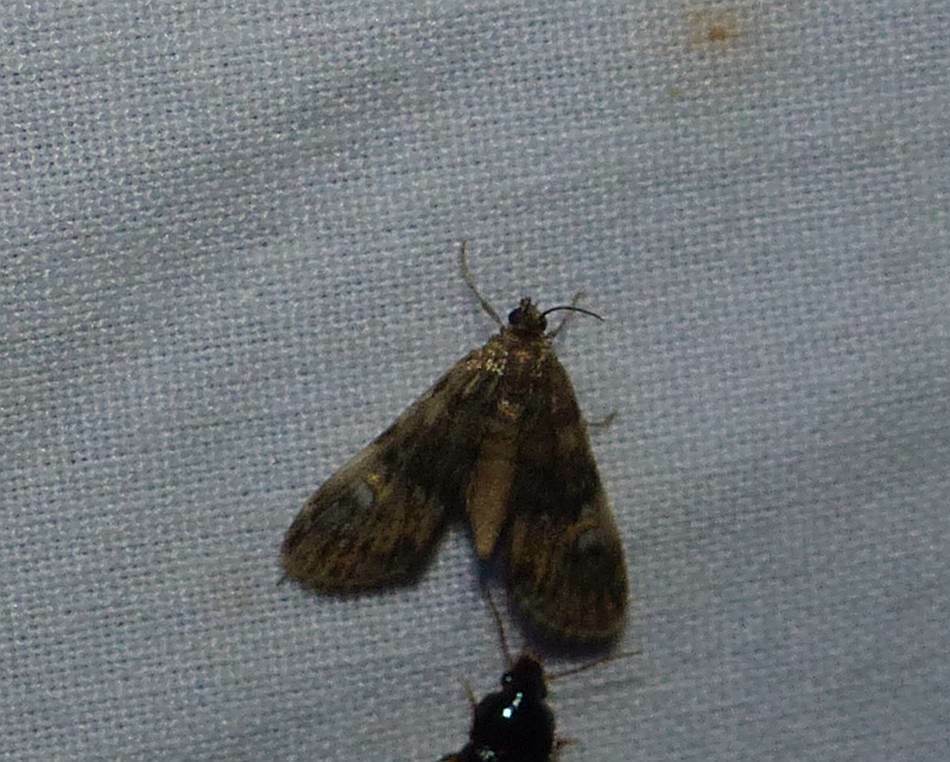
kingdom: Animalia
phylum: Arthropoda
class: Insecta
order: Lepidoptera
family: Crambidae
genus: Elophila
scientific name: Elophila obliteralis
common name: Waterlily leafcutter moth
